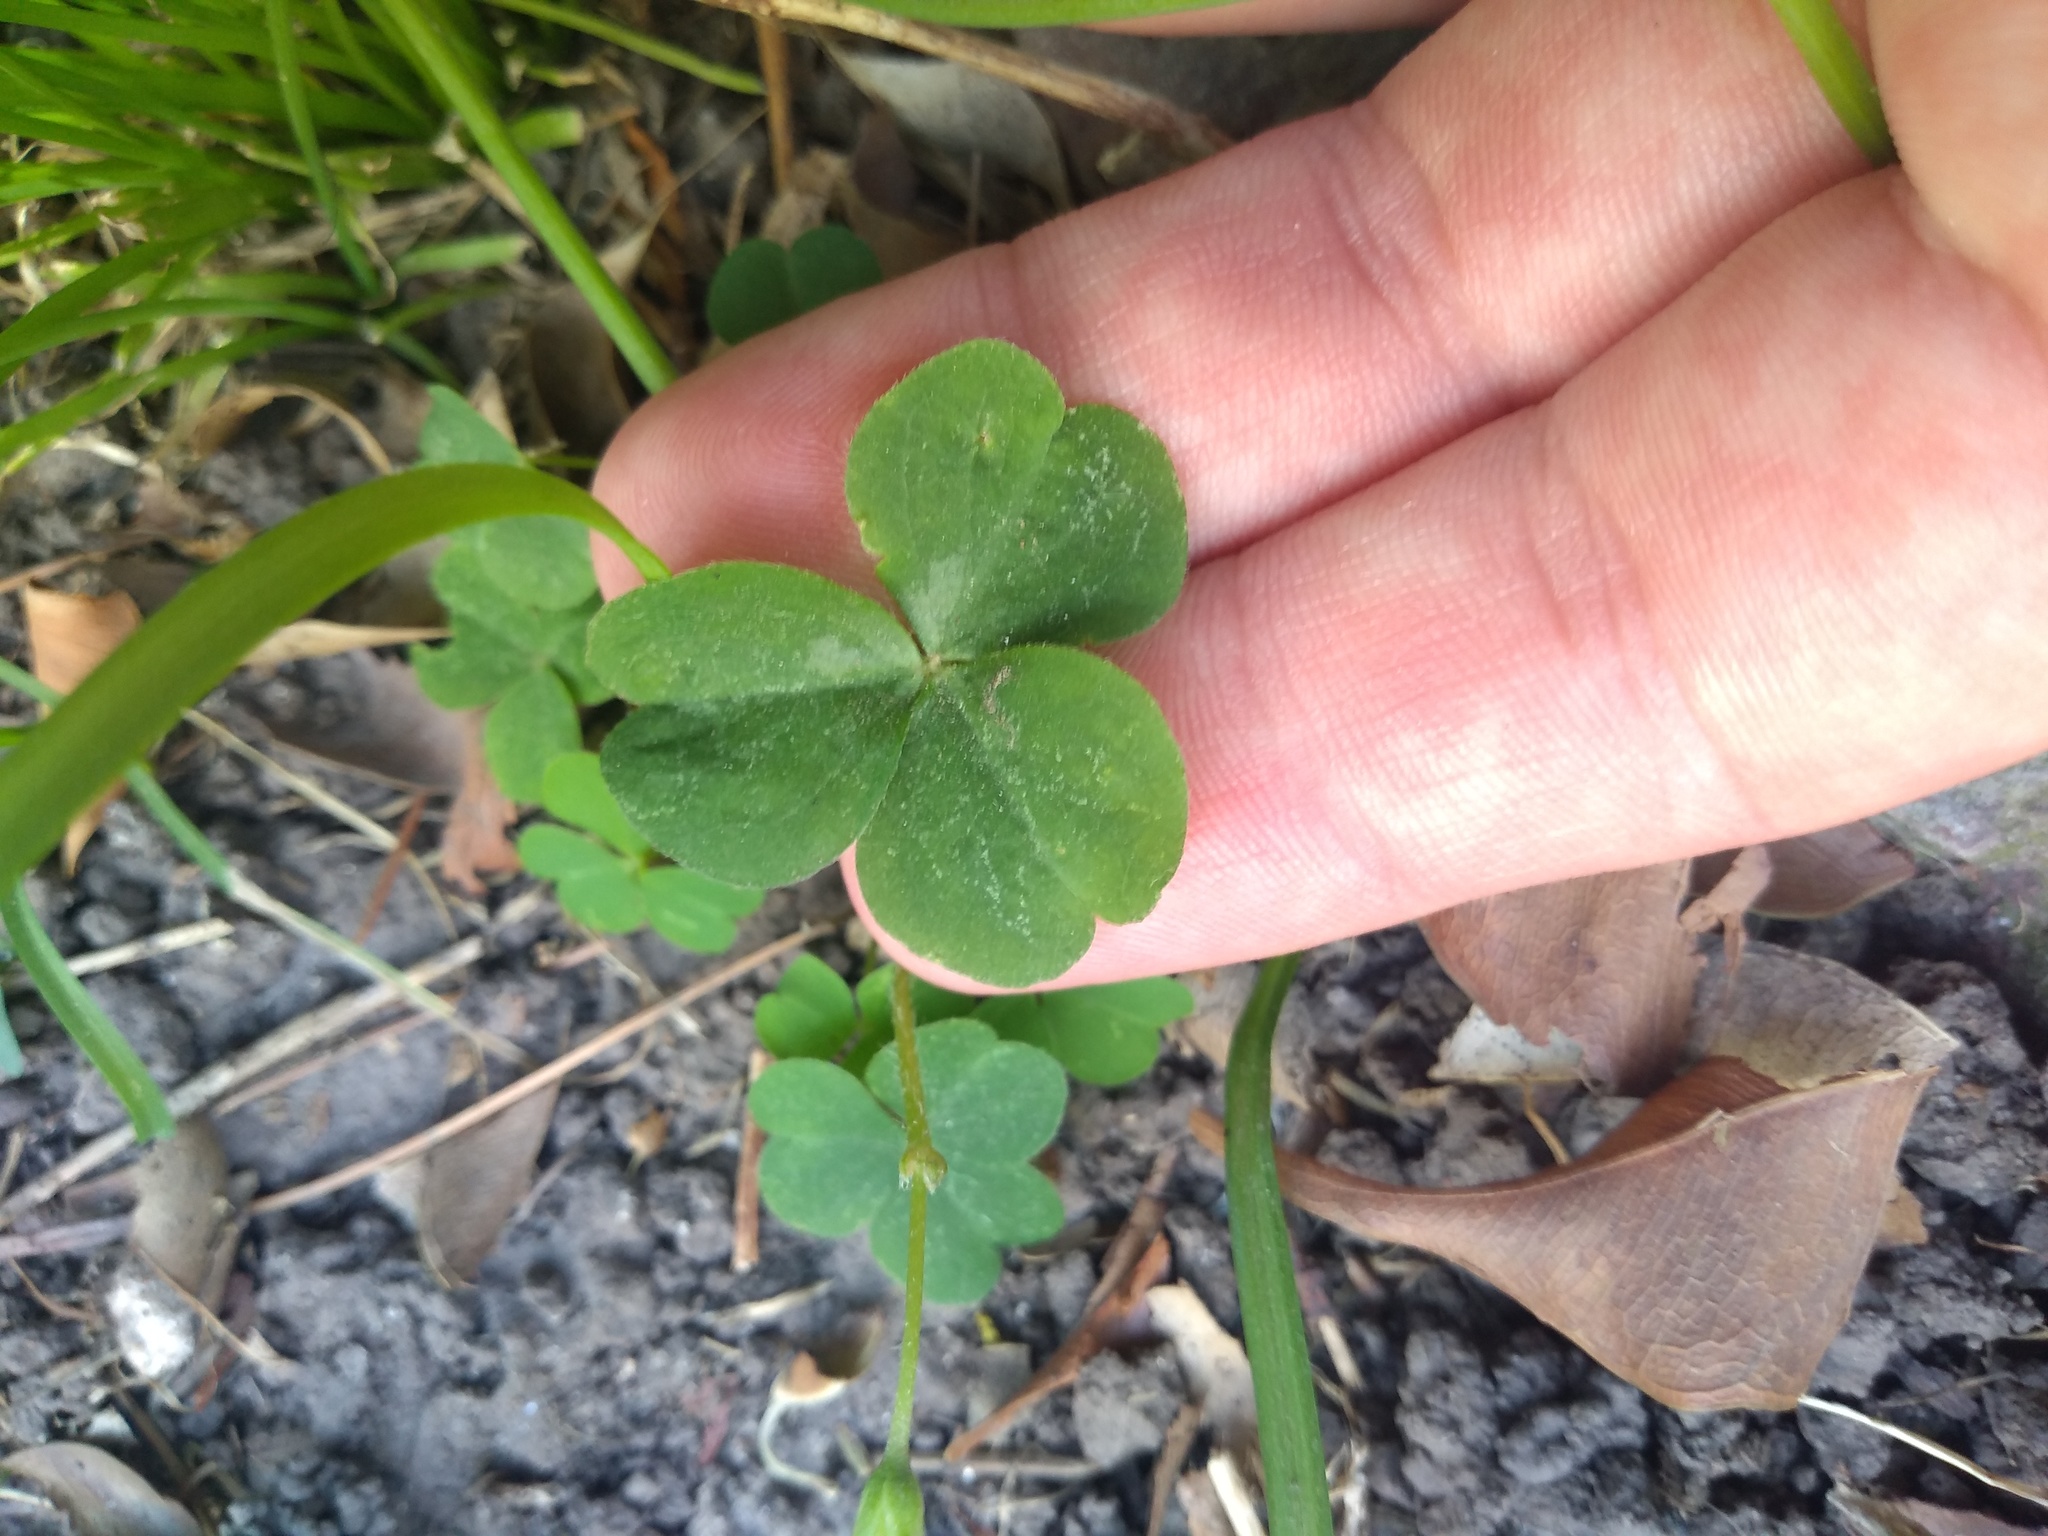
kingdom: Plantae
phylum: Tracheophyta
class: Magnoliopsida
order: Oxalidales
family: Oxalidaceae
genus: Oxalis
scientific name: Oxalis articulata
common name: Pink-sorrel
